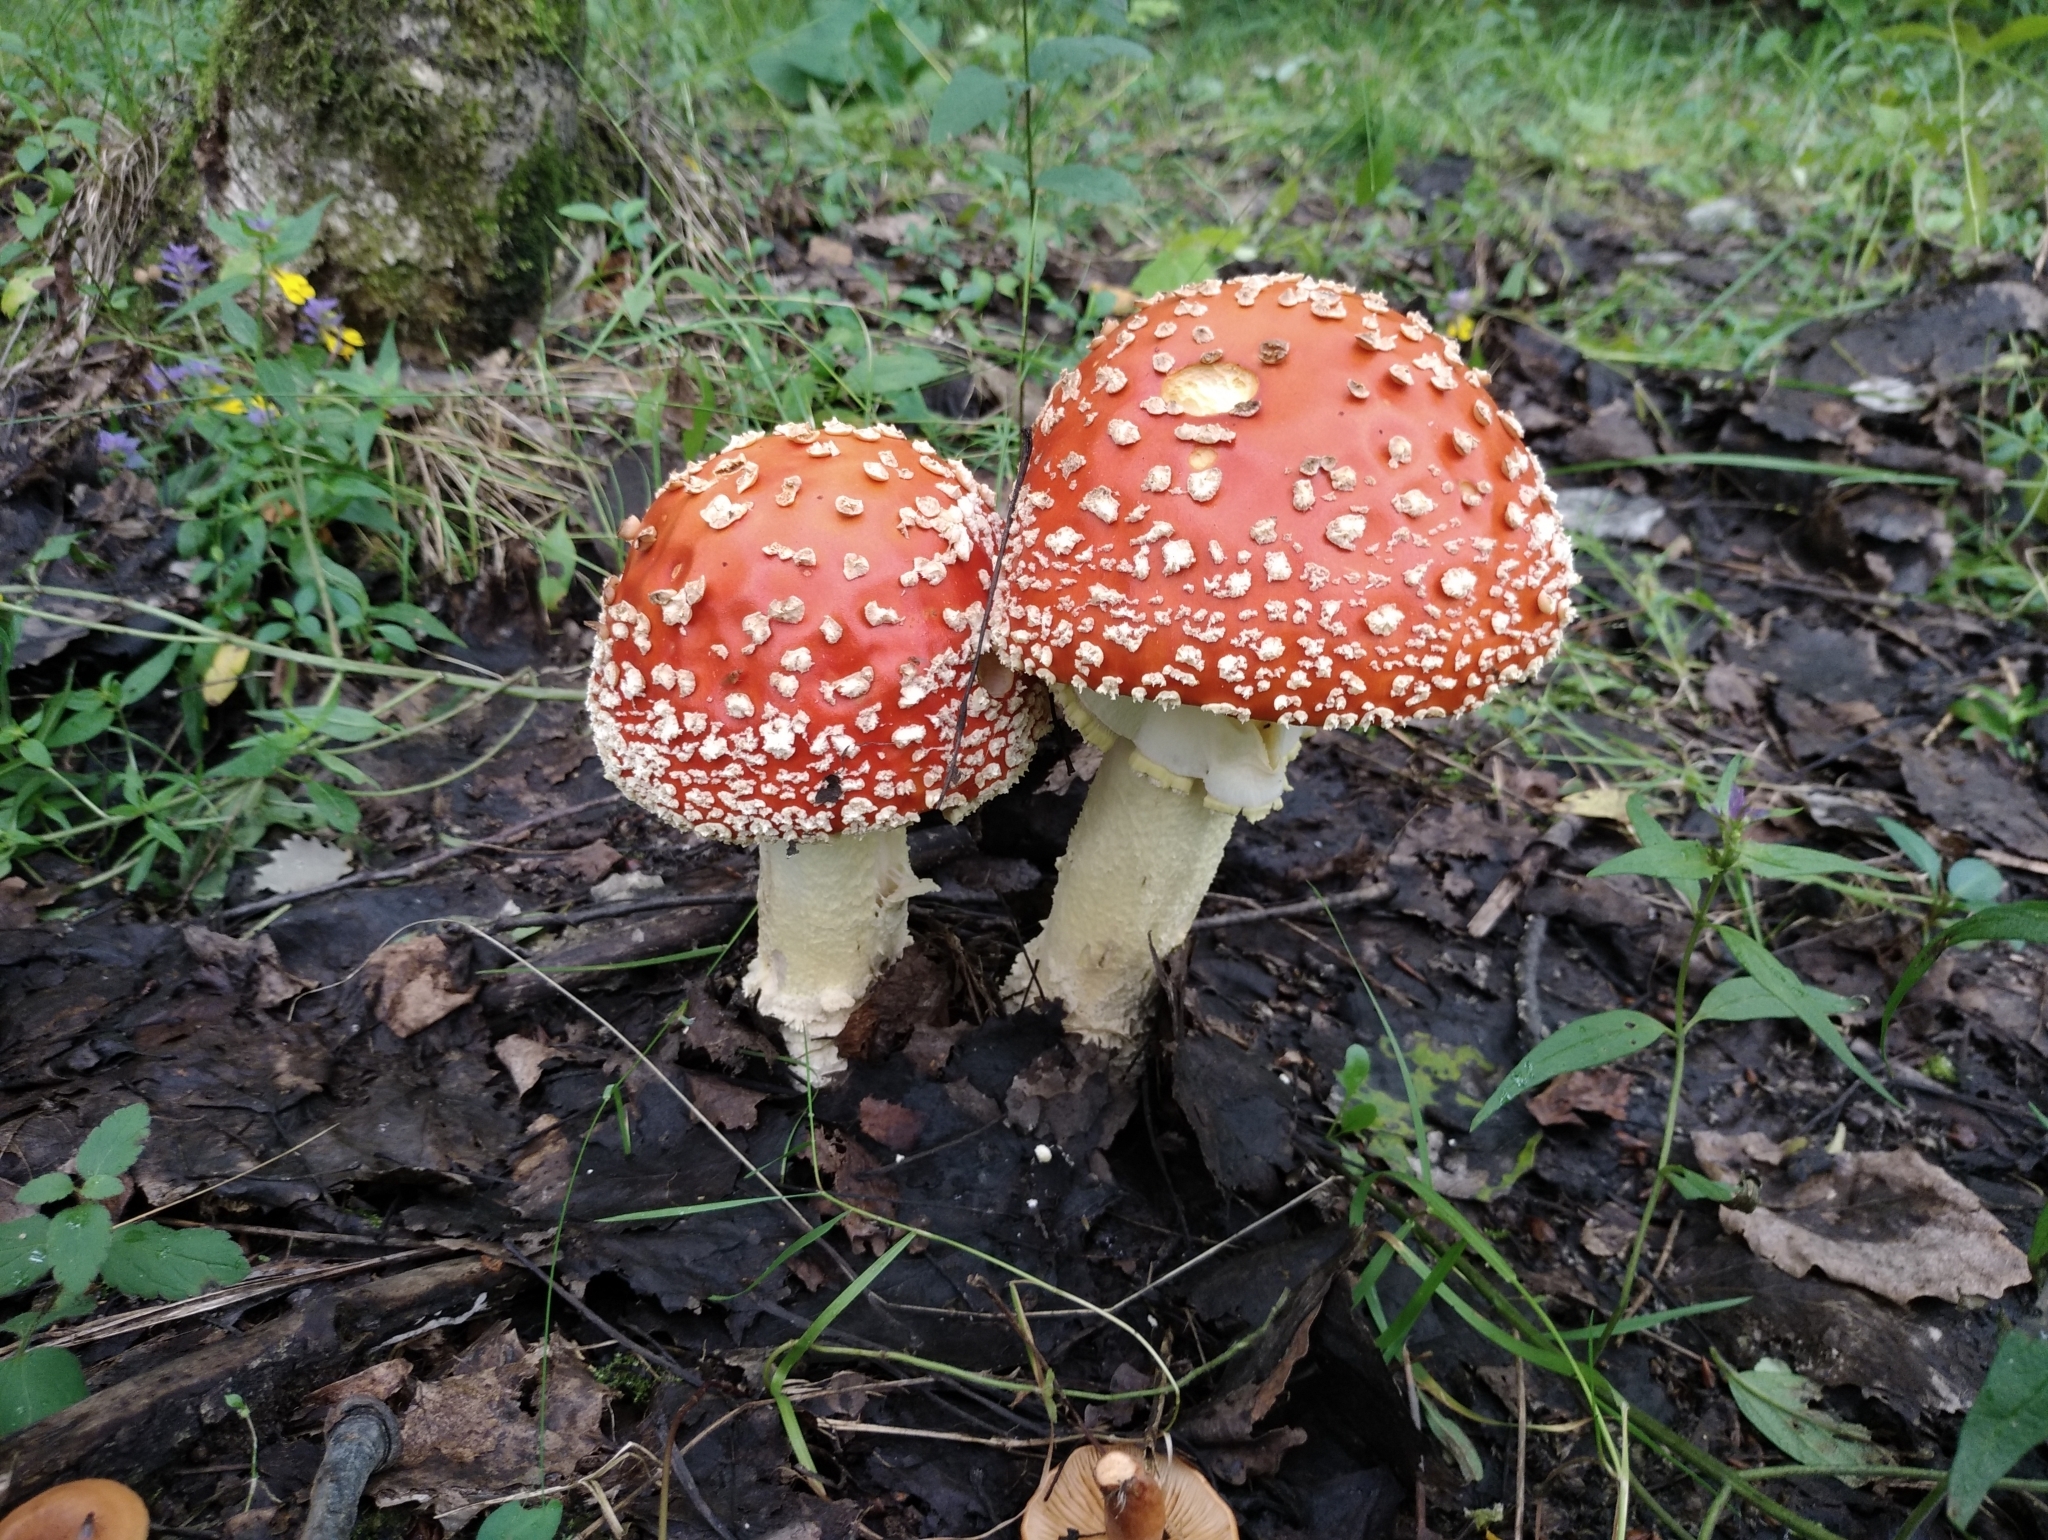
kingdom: Fungi
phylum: Basidiomycota
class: Agaricomycetes
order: Agaricales
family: Amanitaceae
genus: Amanita
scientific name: Amanita muscaria
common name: Fly agaric
